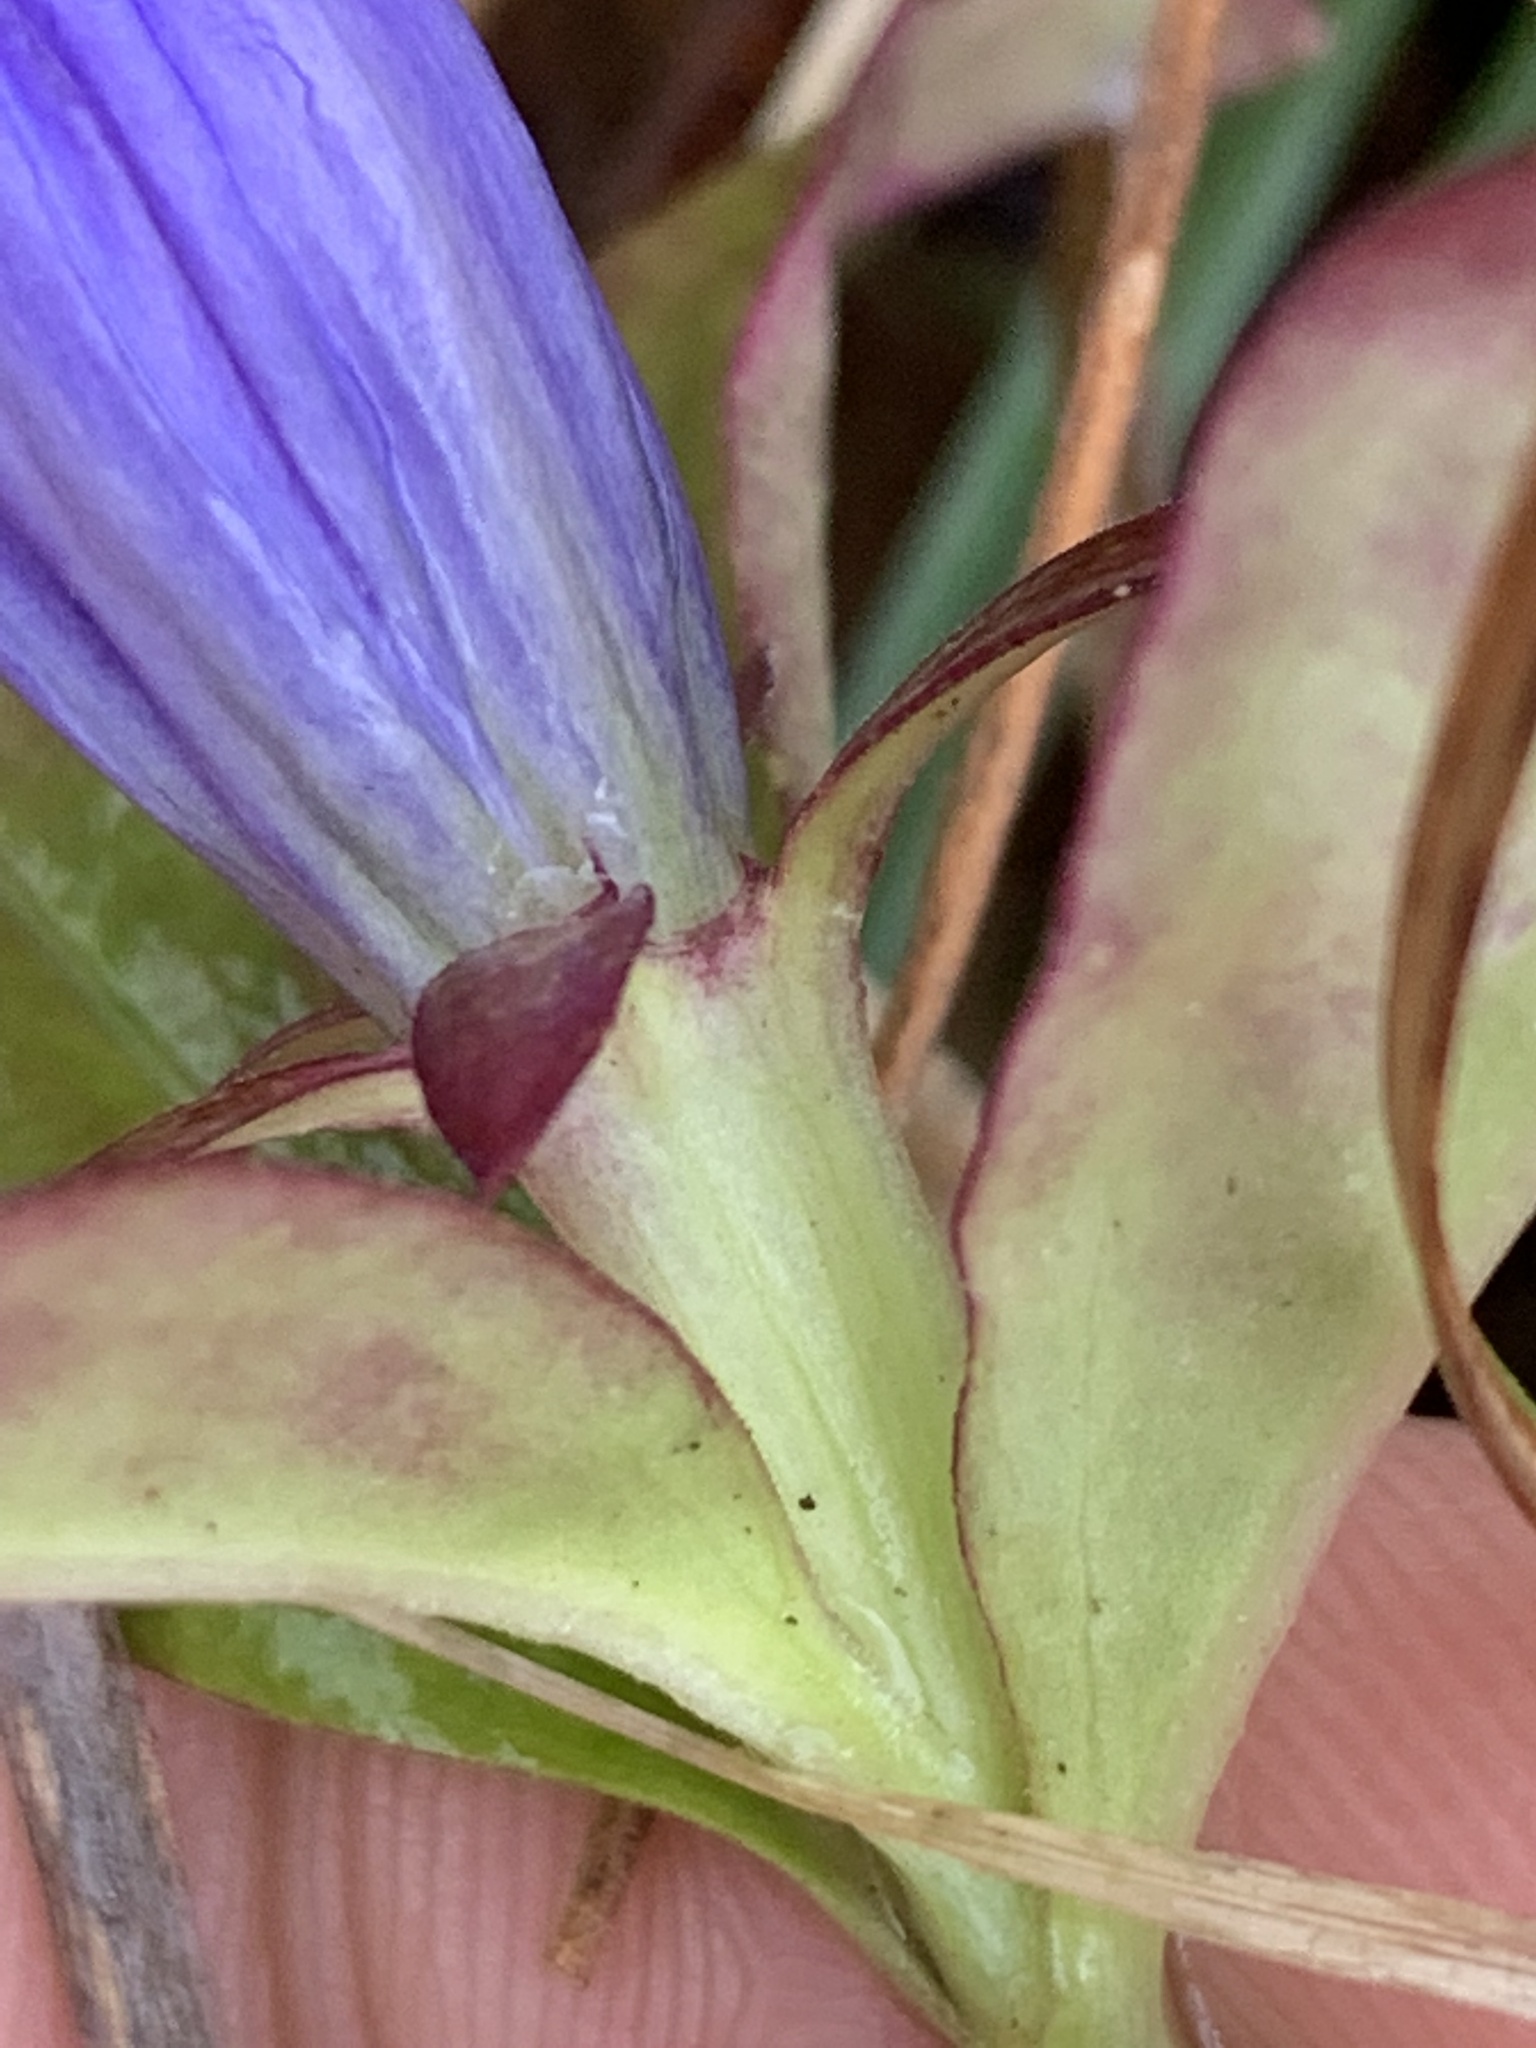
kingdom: Plantae
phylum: Tracheophyta
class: Magnoliopsida
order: Gentianales
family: Gentianaceae
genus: Gentiana
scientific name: Gentiana andrewsii
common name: Bottle gentian
